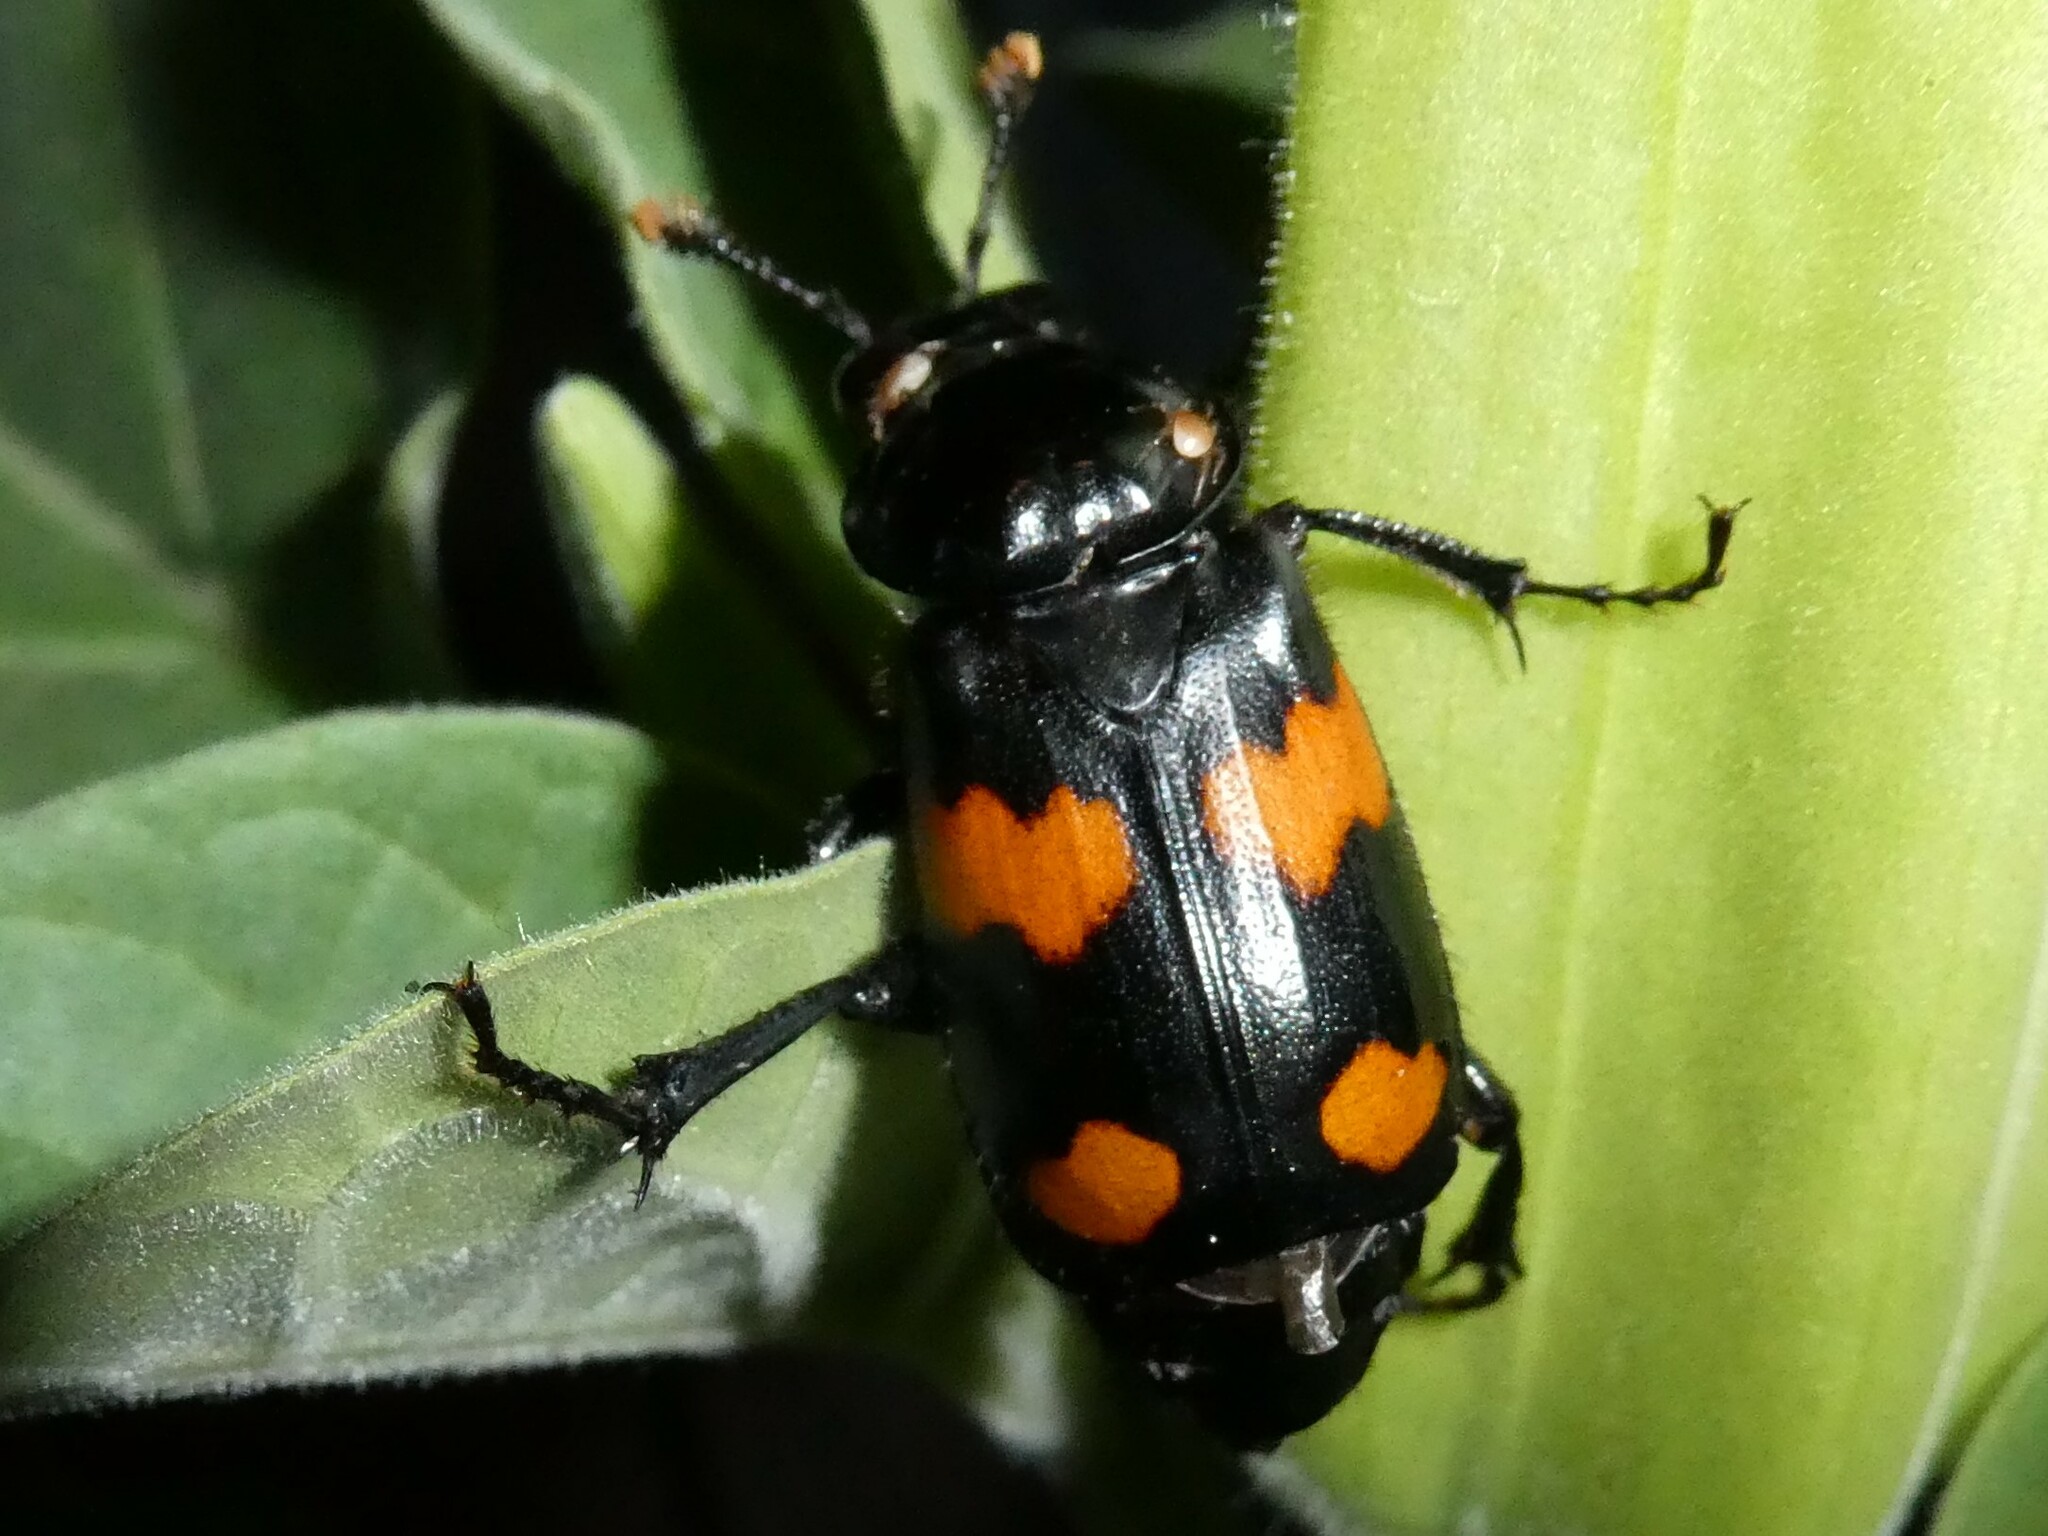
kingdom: Animalia
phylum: Arthropoda
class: Insecta
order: Coleoptera
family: Staphylinidae
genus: Nicrophorus
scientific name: Nicrophorus orbicollis
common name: Roundneck sexton beetle
